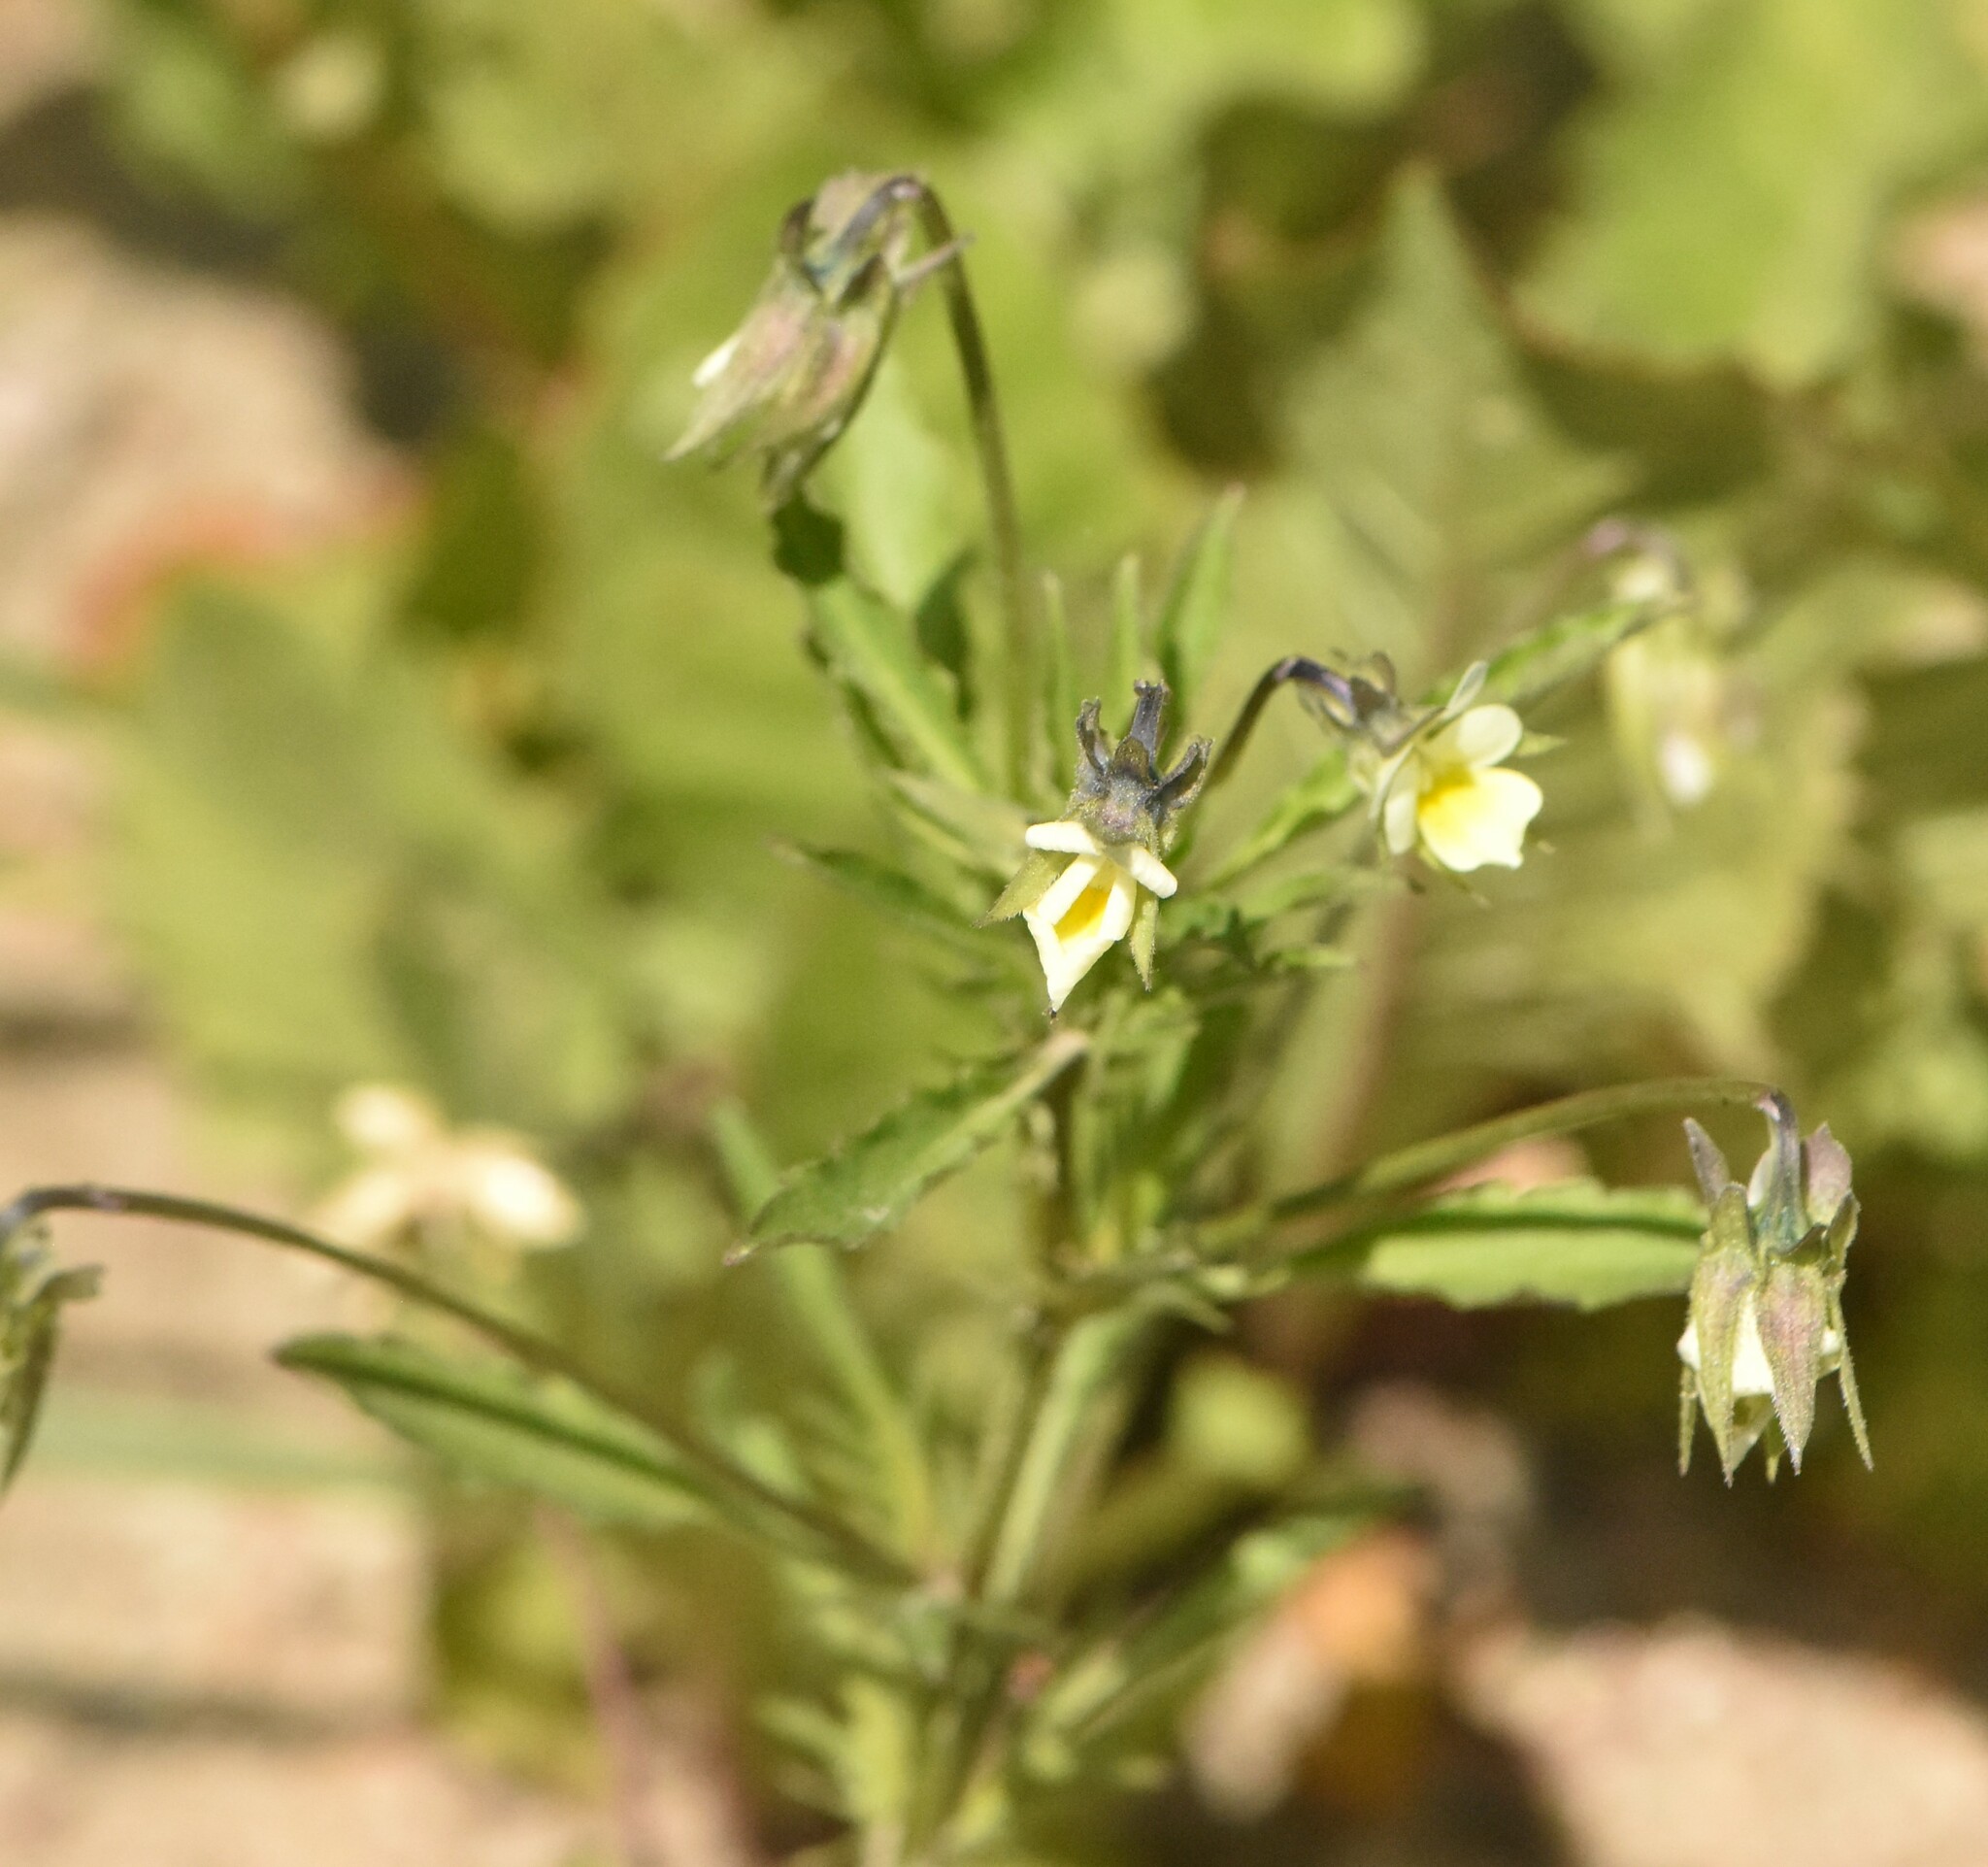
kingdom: Plantae
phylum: Tracheophyta
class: Magnoliopsida
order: Malpighiales
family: Violaceae
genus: Viola
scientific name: Viola arvensis
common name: Field pansy
